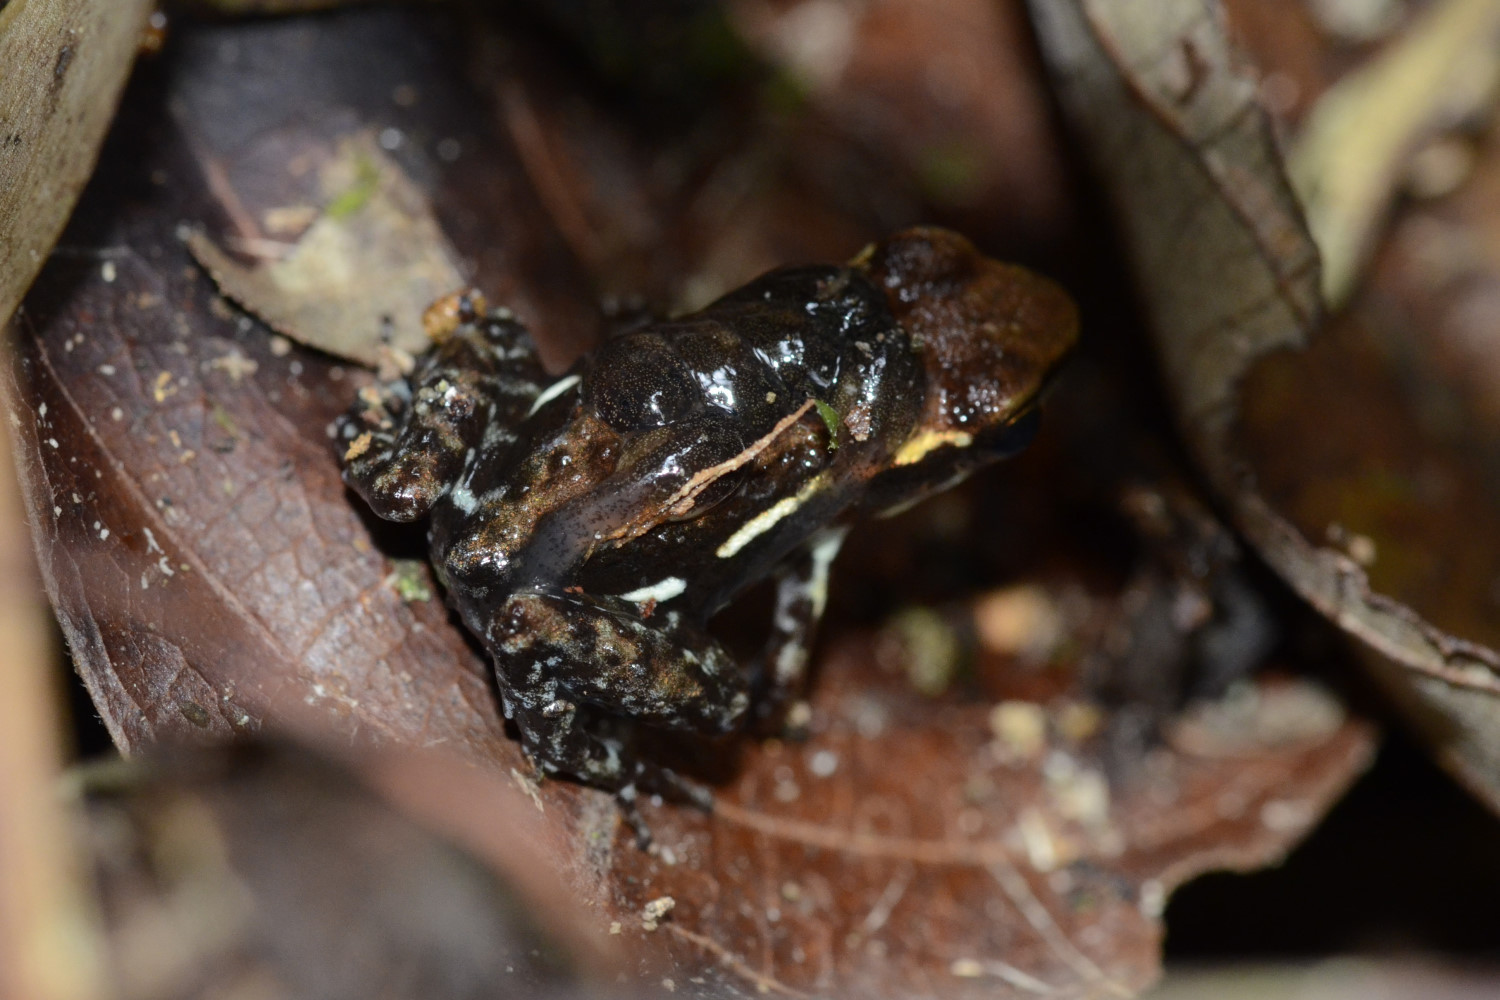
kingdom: Animalia
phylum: Chordata
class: Amphibia
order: Anura
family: Dendrobatidae
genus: Epipedobates
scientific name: Epipedobates boulengeri
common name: Marbled poison-arrow frog
